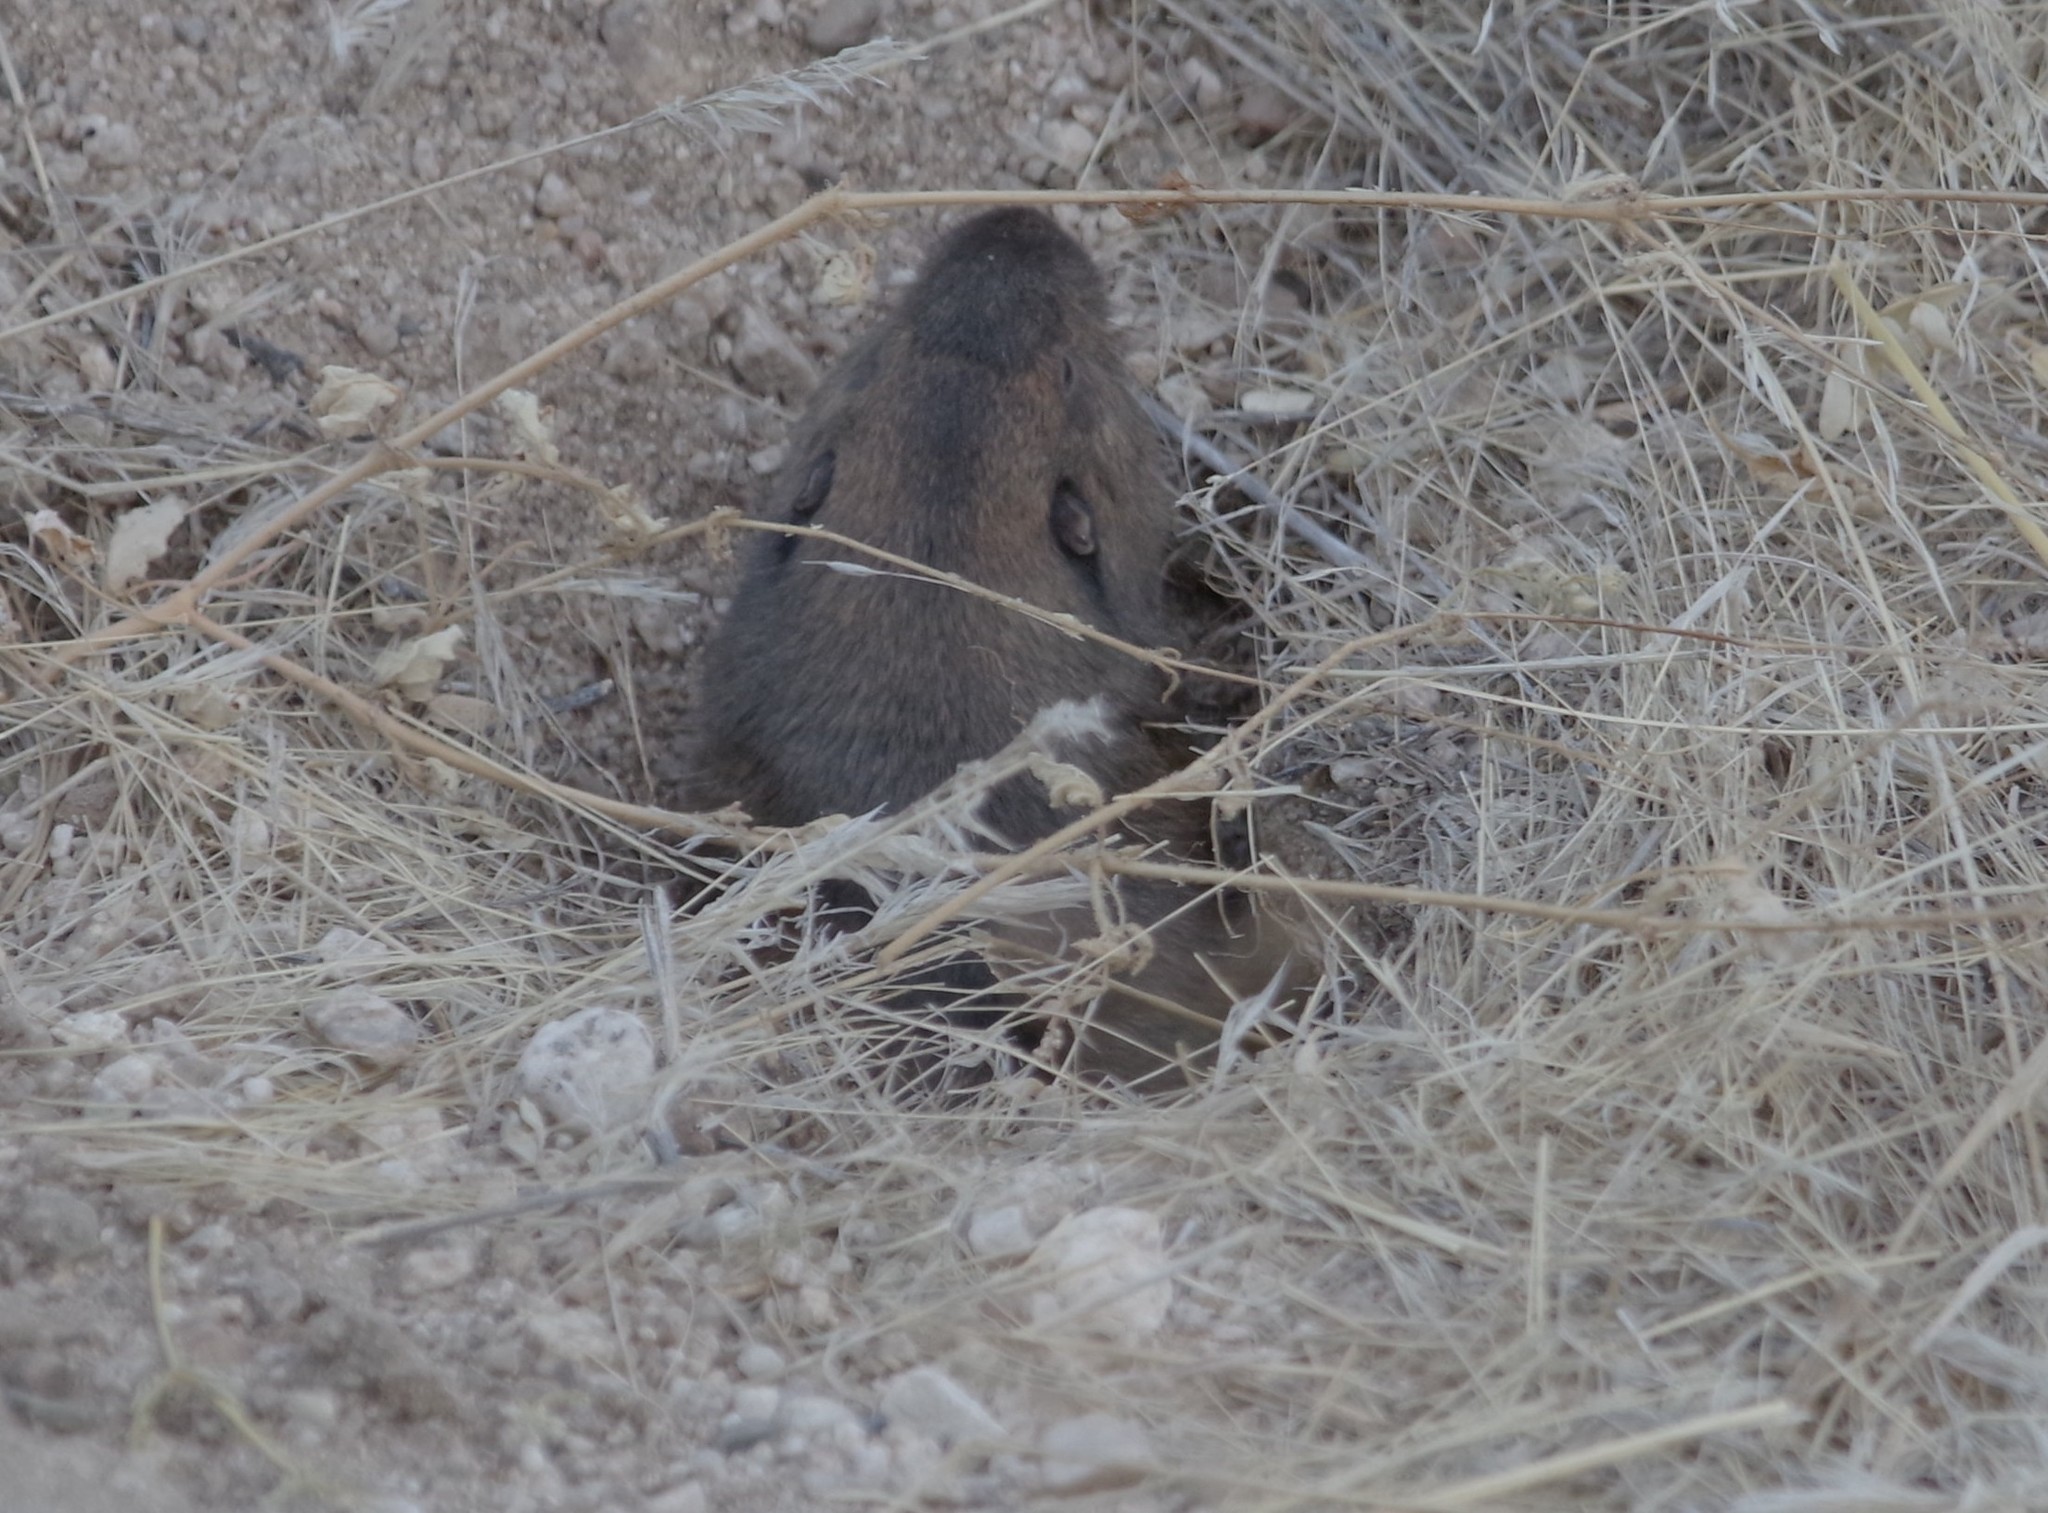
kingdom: Animalia
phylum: Chordata
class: Mammalia
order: Rodentia
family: Geomyidae
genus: Thomomys
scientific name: Thomomys bottae
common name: Botta's pocket gopher
